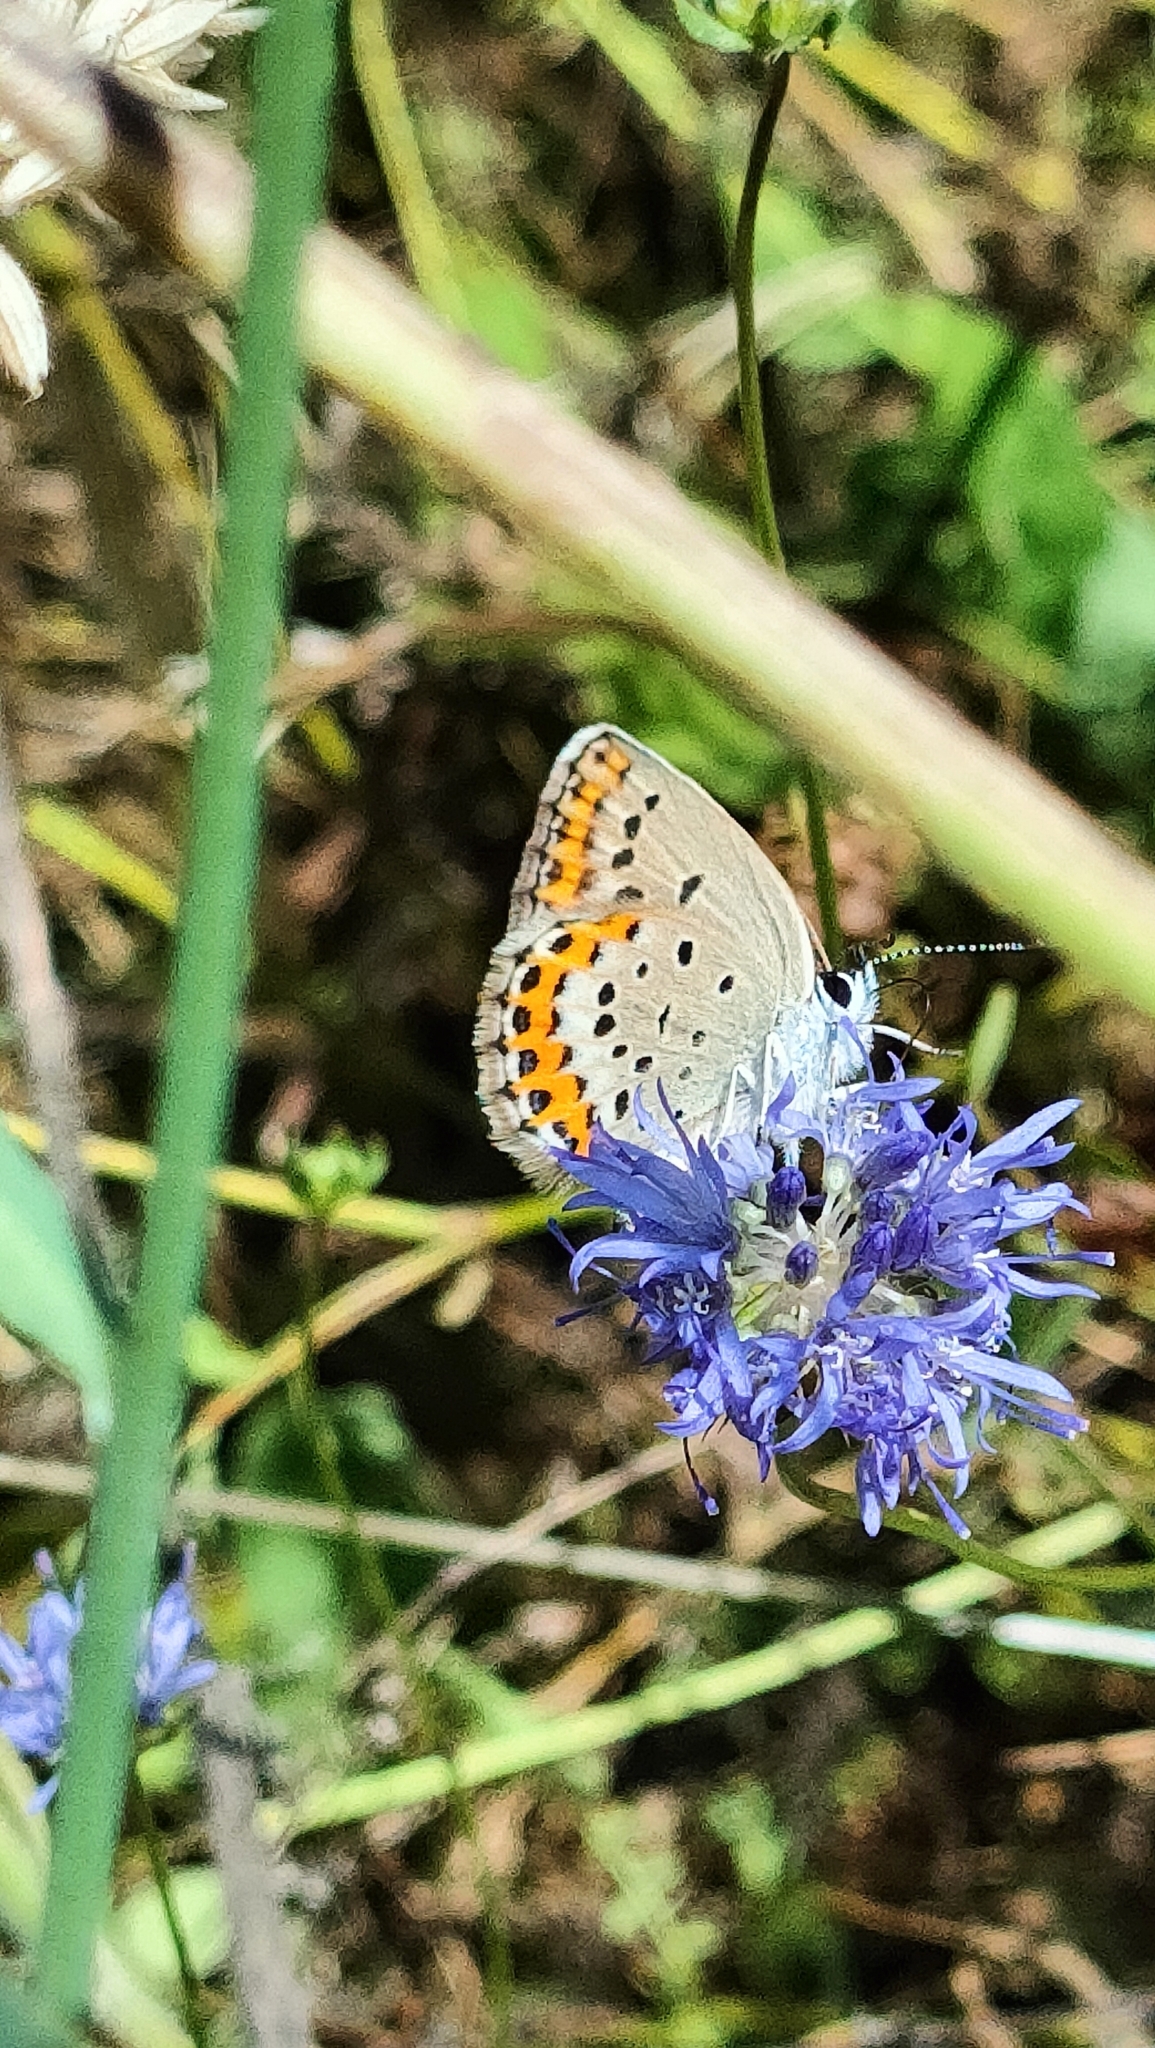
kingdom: Animalia
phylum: Arthropoda
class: Insecta
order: Lepidoptera
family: Lycaenidae
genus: Plebejus
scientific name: Plebejus argyrognomon
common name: Reverdin's blue
